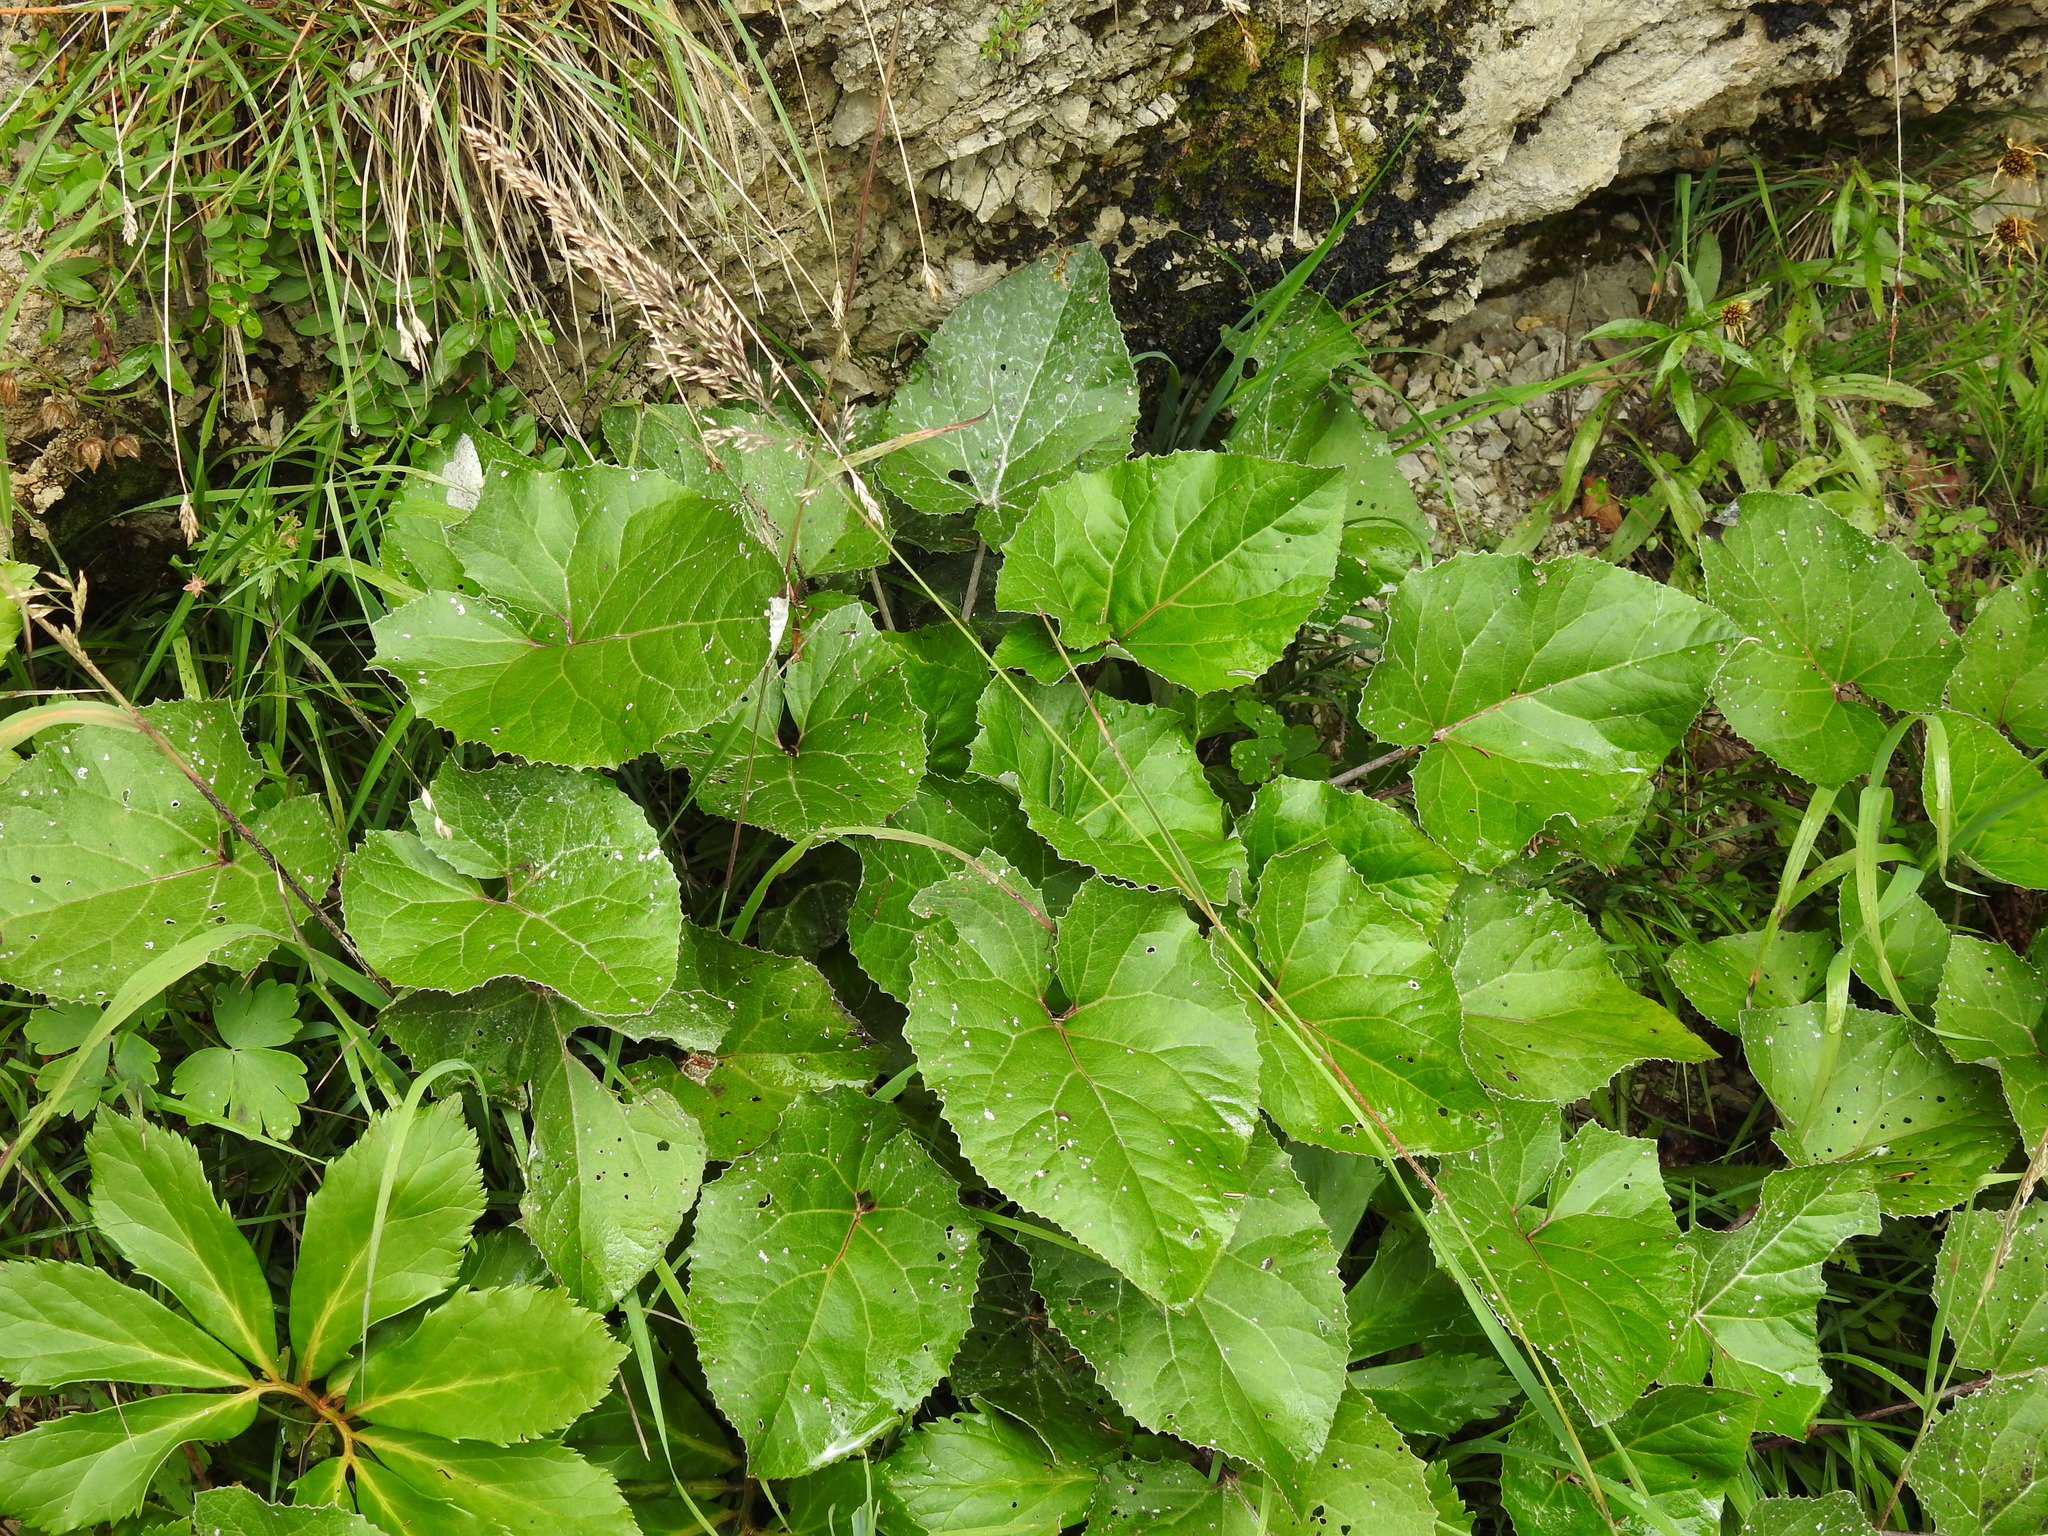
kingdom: Plantae
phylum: Tracheophyta
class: Magnoliopsida
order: Asterales
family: Asteraceae
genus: Petasites
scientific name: Petasites paradoxus
